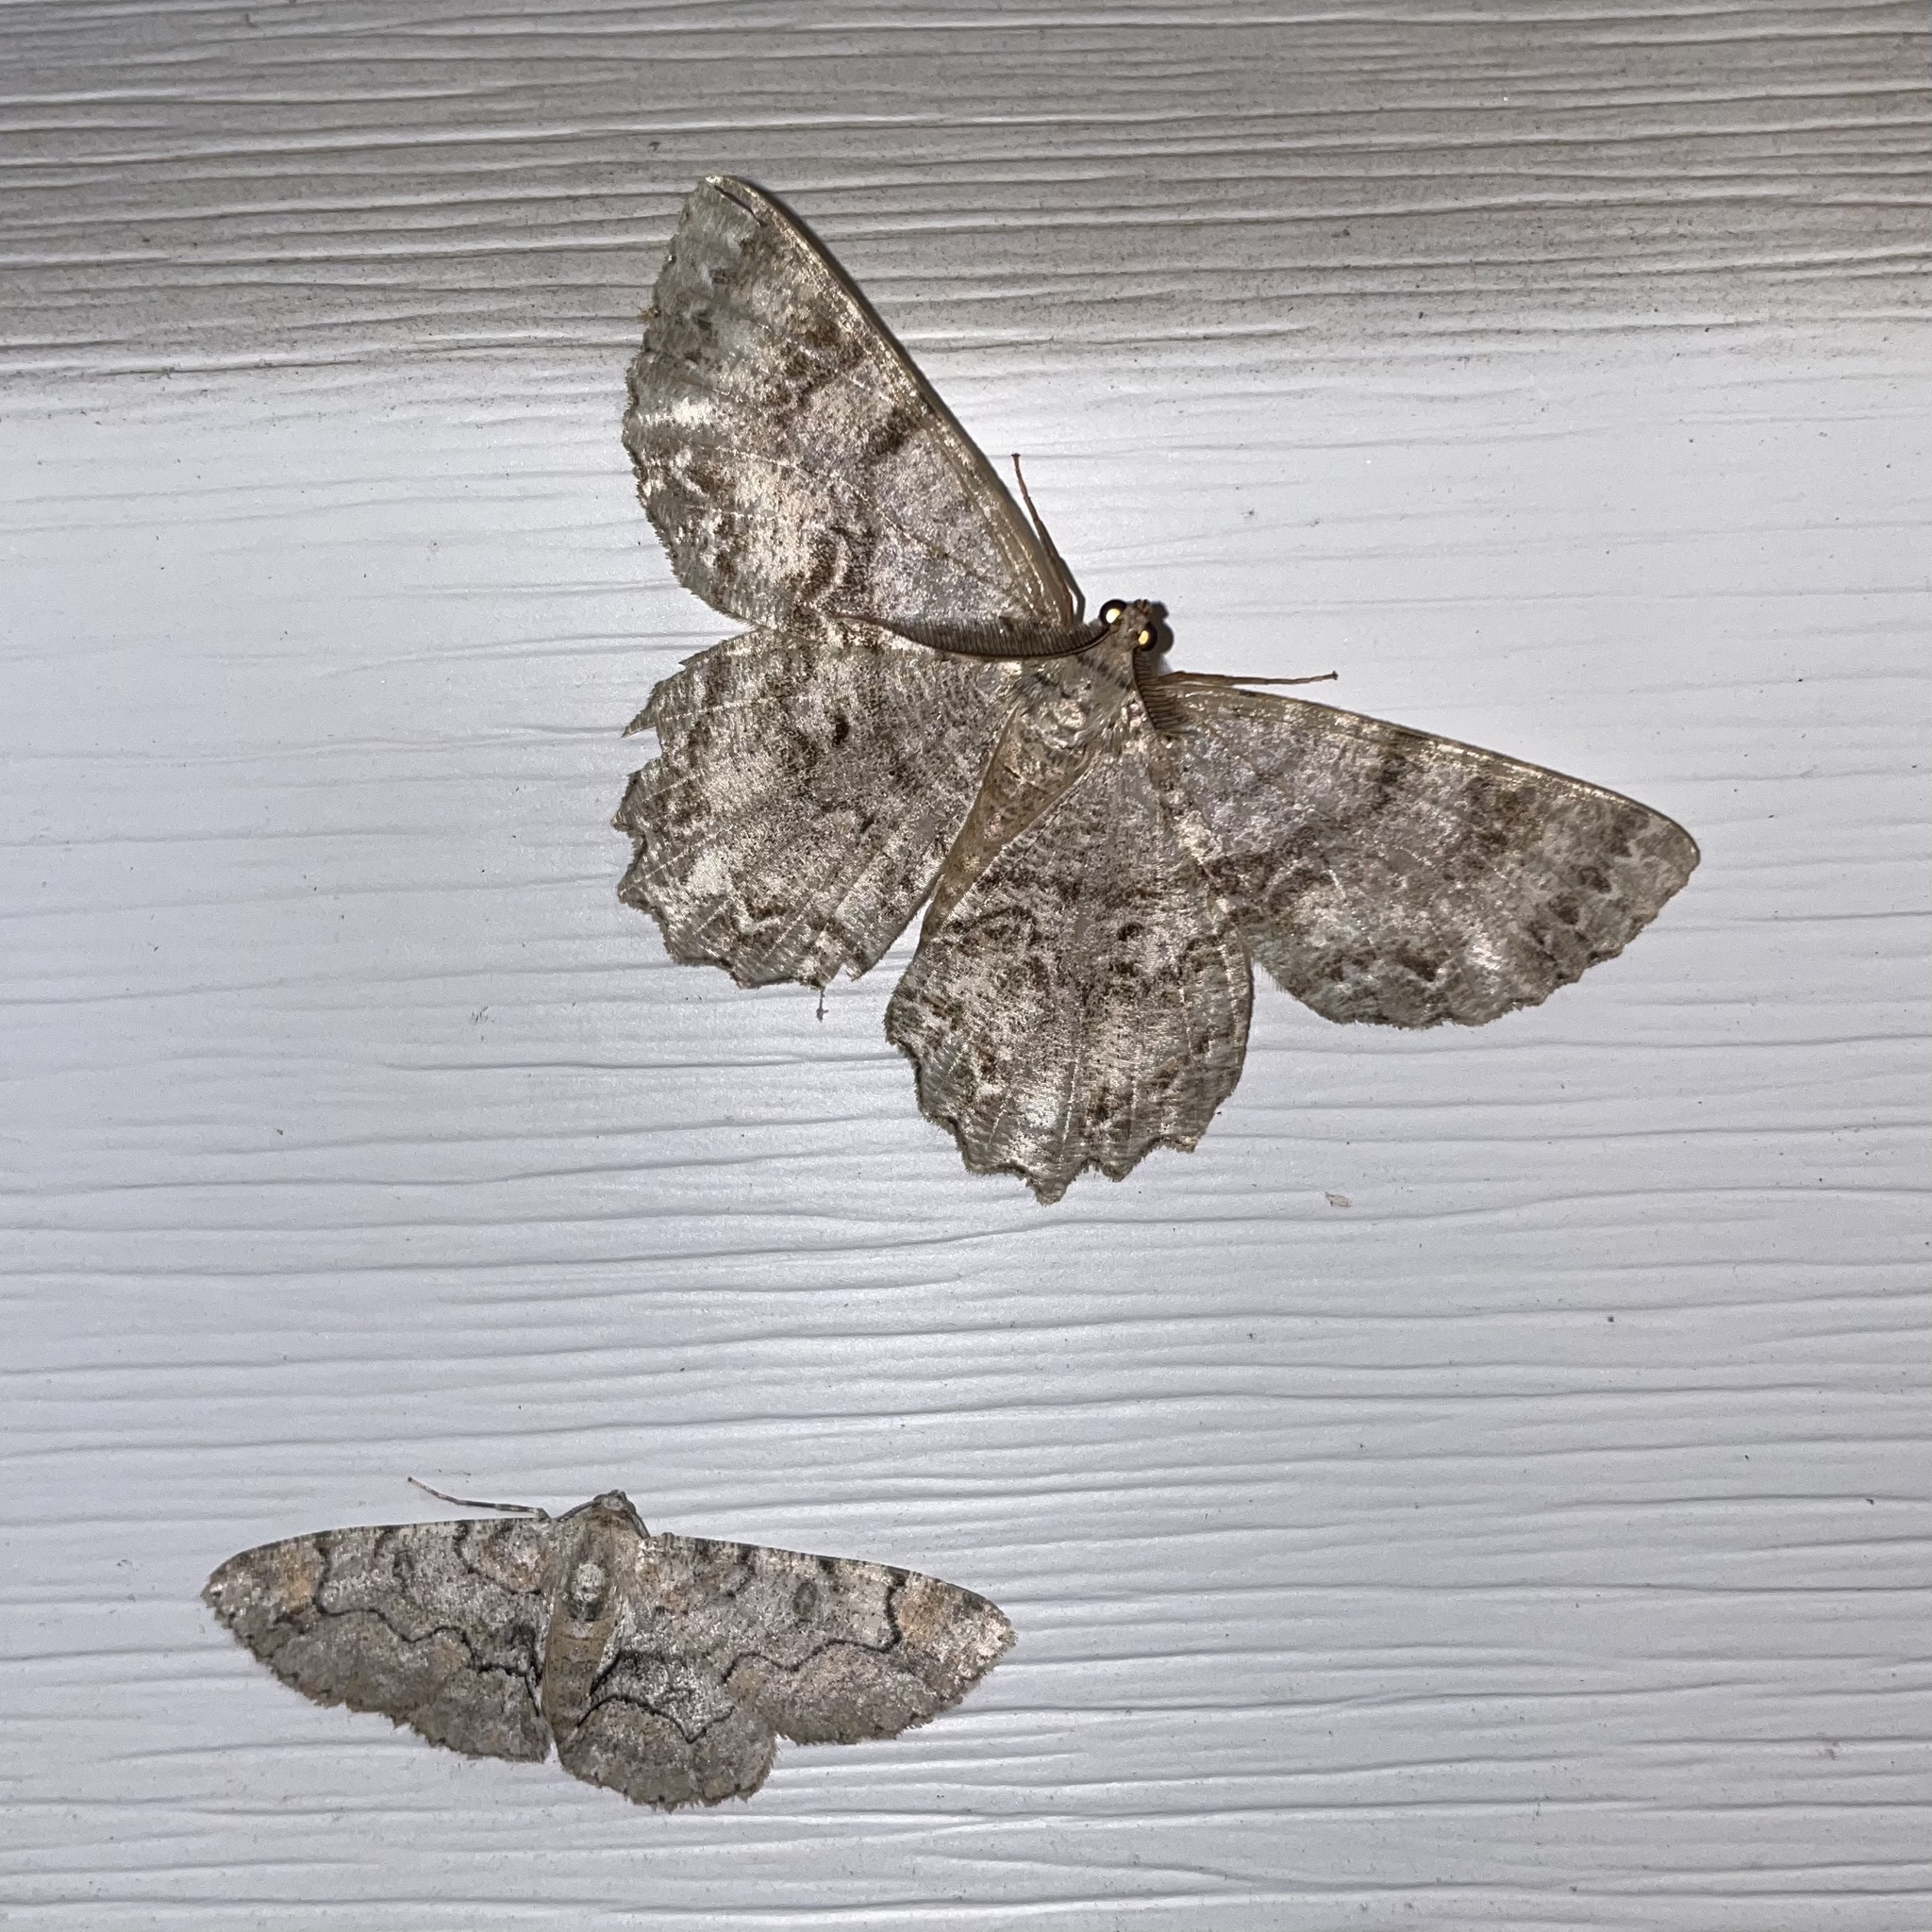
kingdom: Animalia
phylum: Arthropoda
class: Insecta
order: Lepidoptera
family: Geometridae
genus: Epimecis
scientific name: Epimecis hortaria
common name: Tulip-tree beauty
